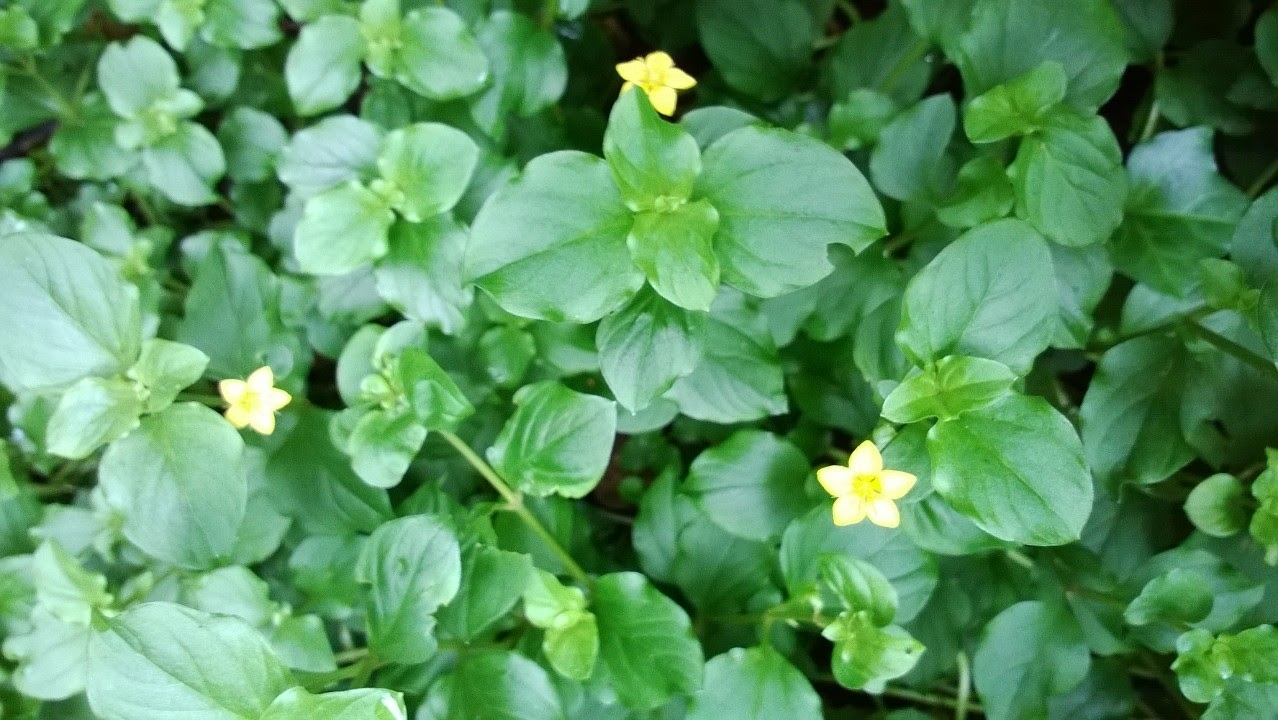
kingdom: Plantae
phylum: Tracheophyta
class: Magnoliopsida
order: Ericales
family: Primulaceae
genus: Lysimachia
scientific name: Lysimachia nemorum
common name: Yellow pimpernel
